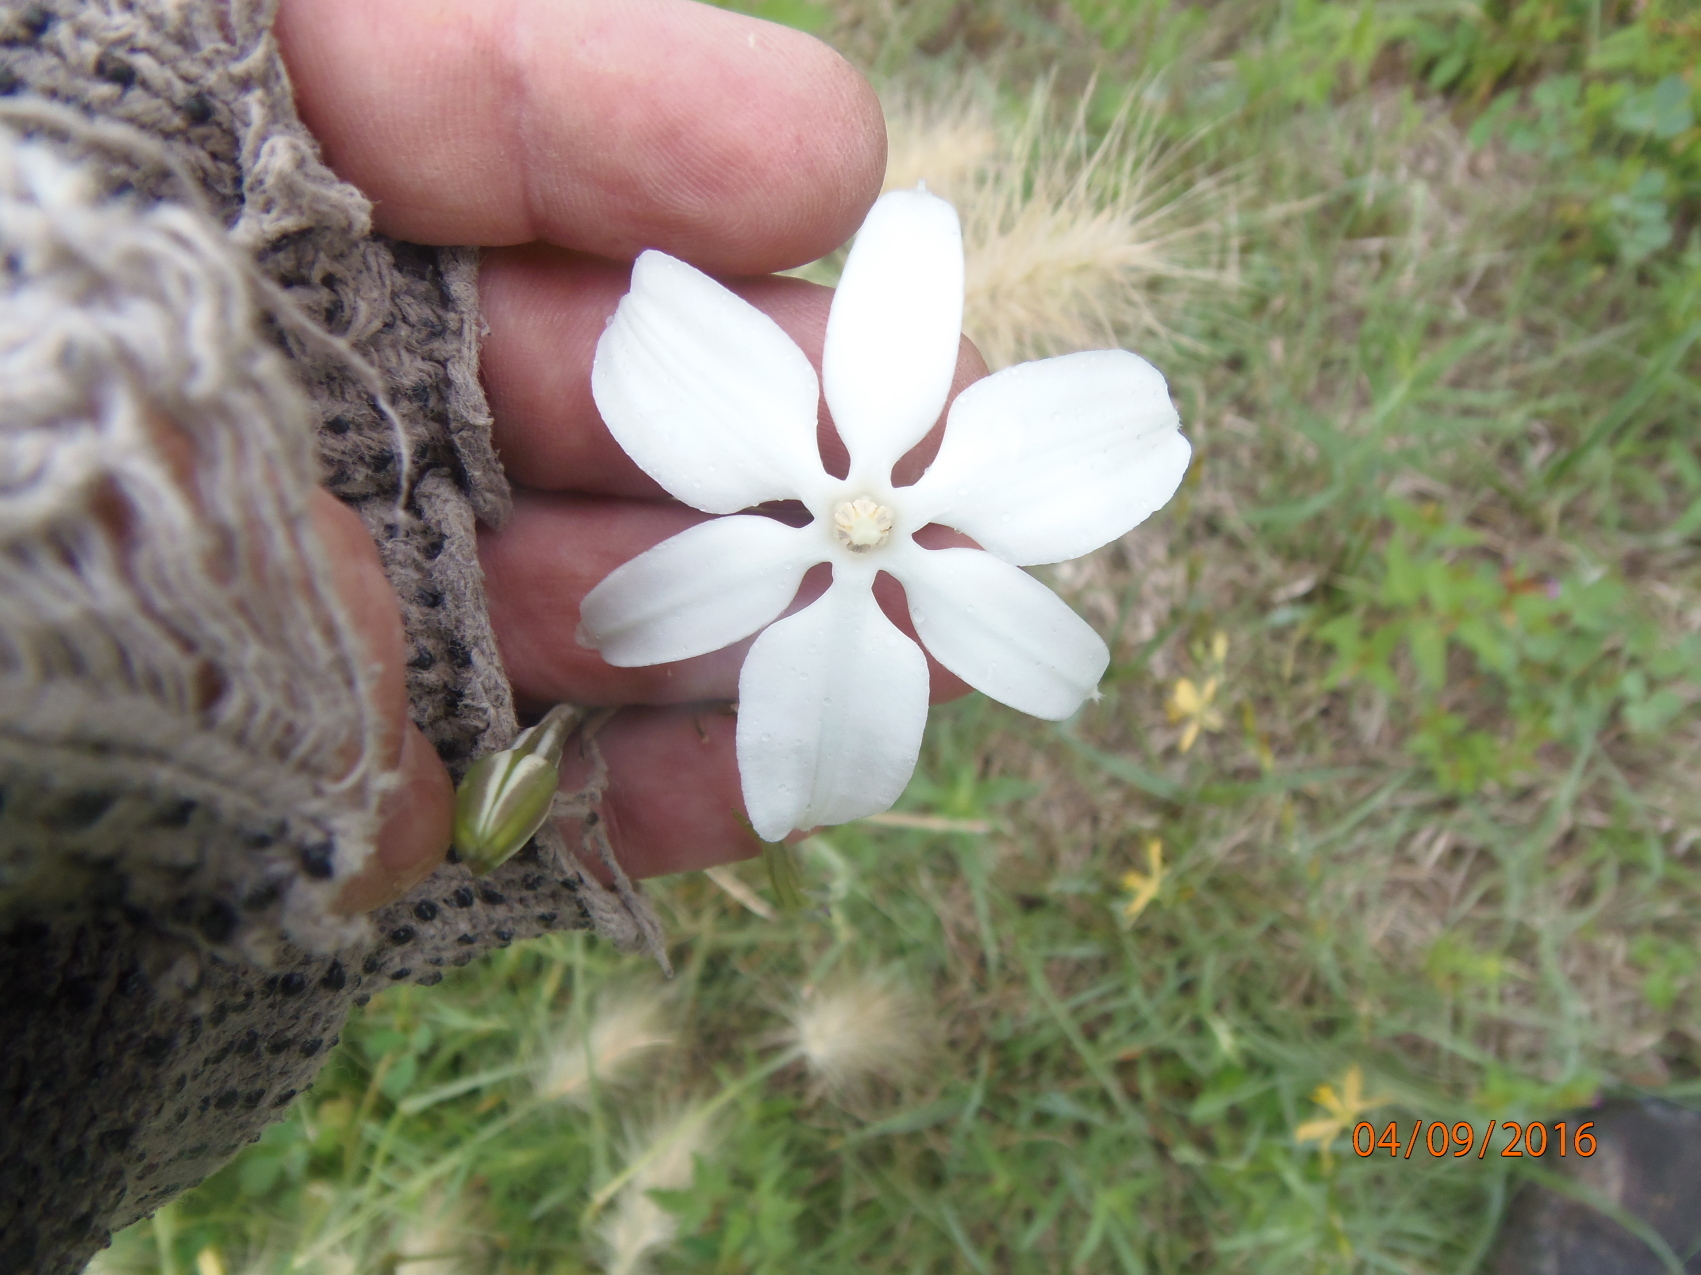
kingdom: Plantae
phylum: Tracheophyta
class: Liliopsida
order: Asparagales
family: Asparagaceae
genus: Milla
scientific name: Milla biflora
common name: Mexican-star
